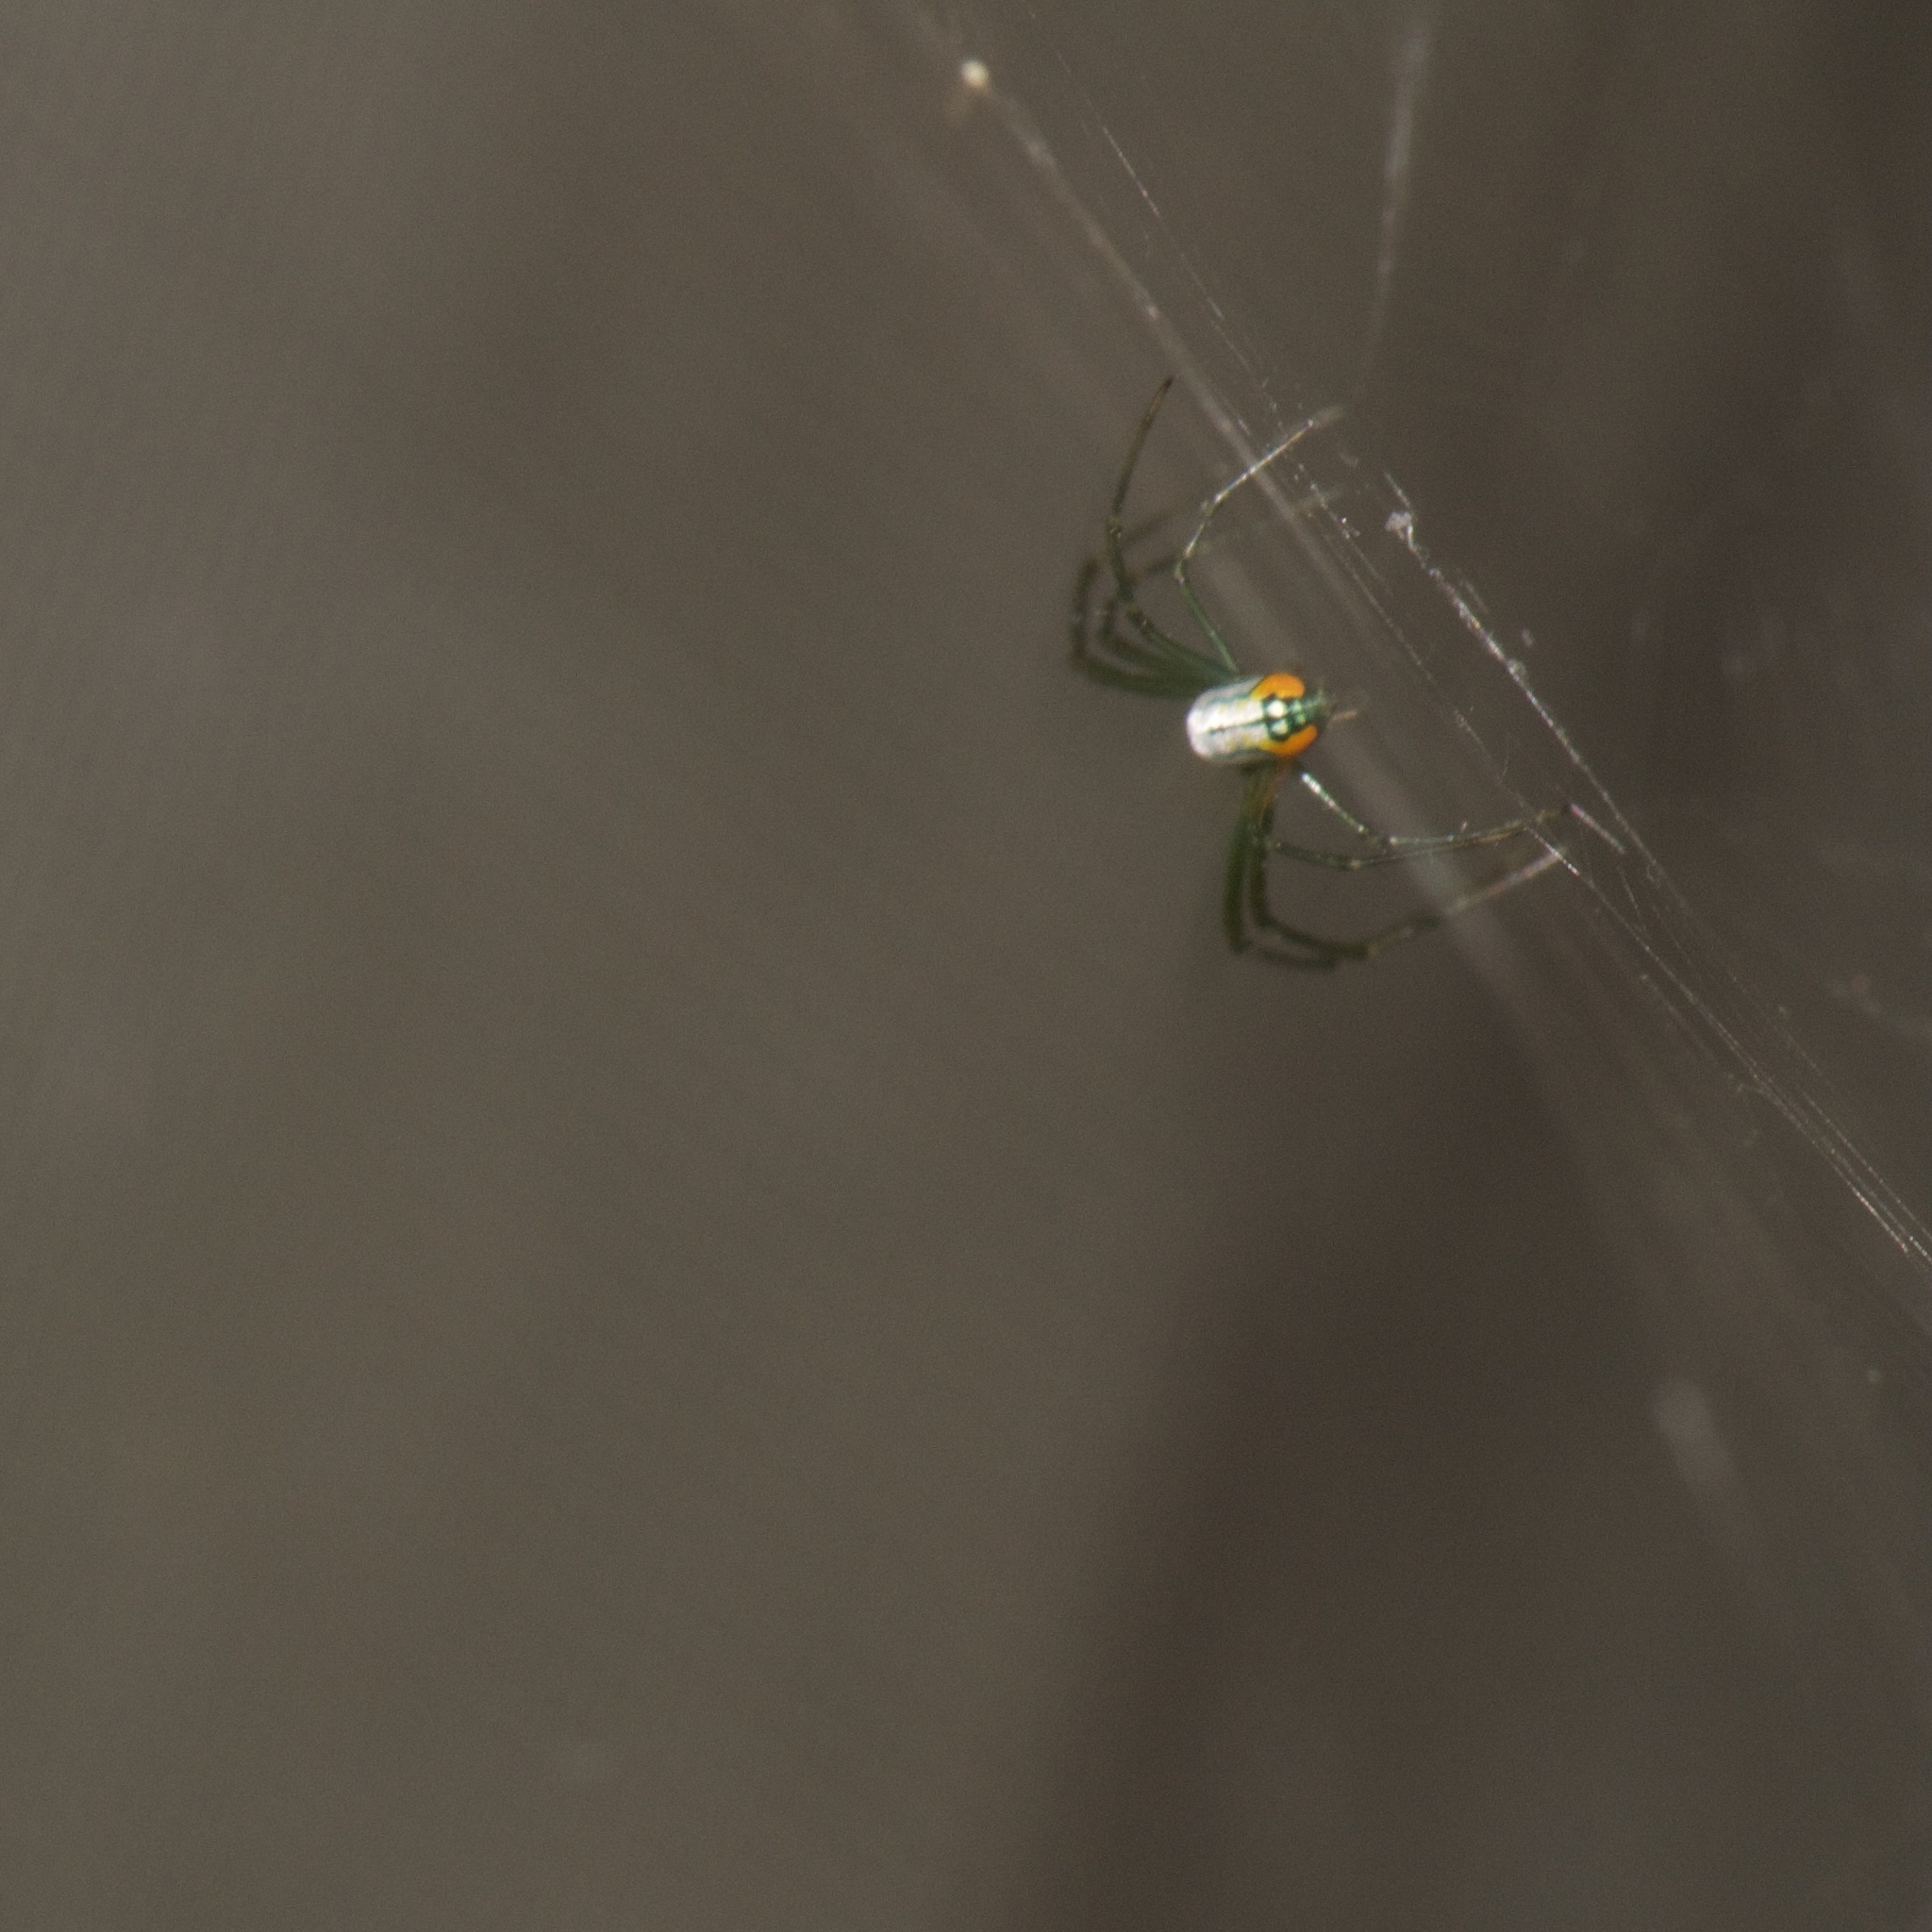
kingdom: Animalia
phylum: Arthropoda
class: Arachnida
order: Araneae
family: Tetragnathidae
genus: Leucauge
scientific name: Leucauge argyrobapta
